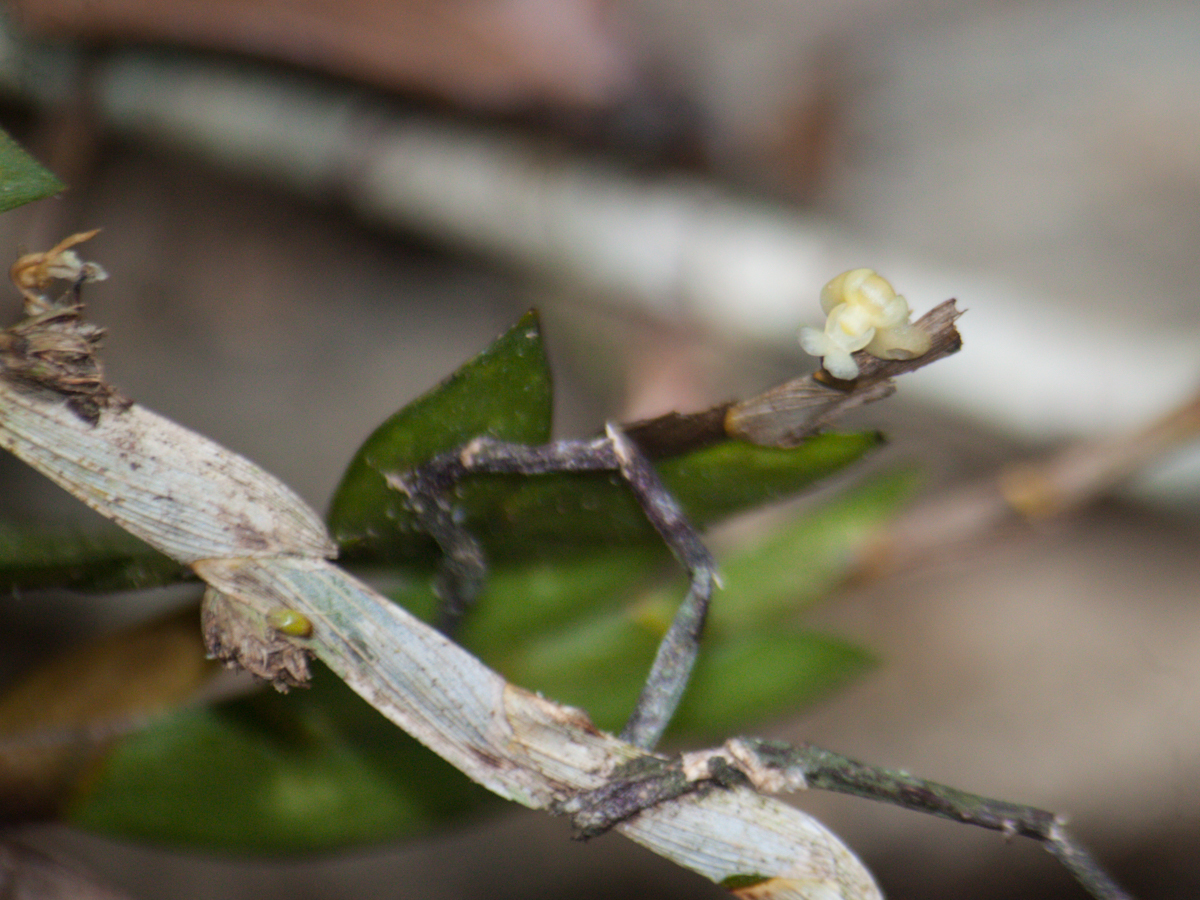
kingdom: Plantae
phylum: Tracheophyta
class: Liliopsida
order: Asparagales
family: Orchidaceae
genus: Dendrobium
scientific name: Dendrobium aloifolium
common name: Aloe-like dendrobium
